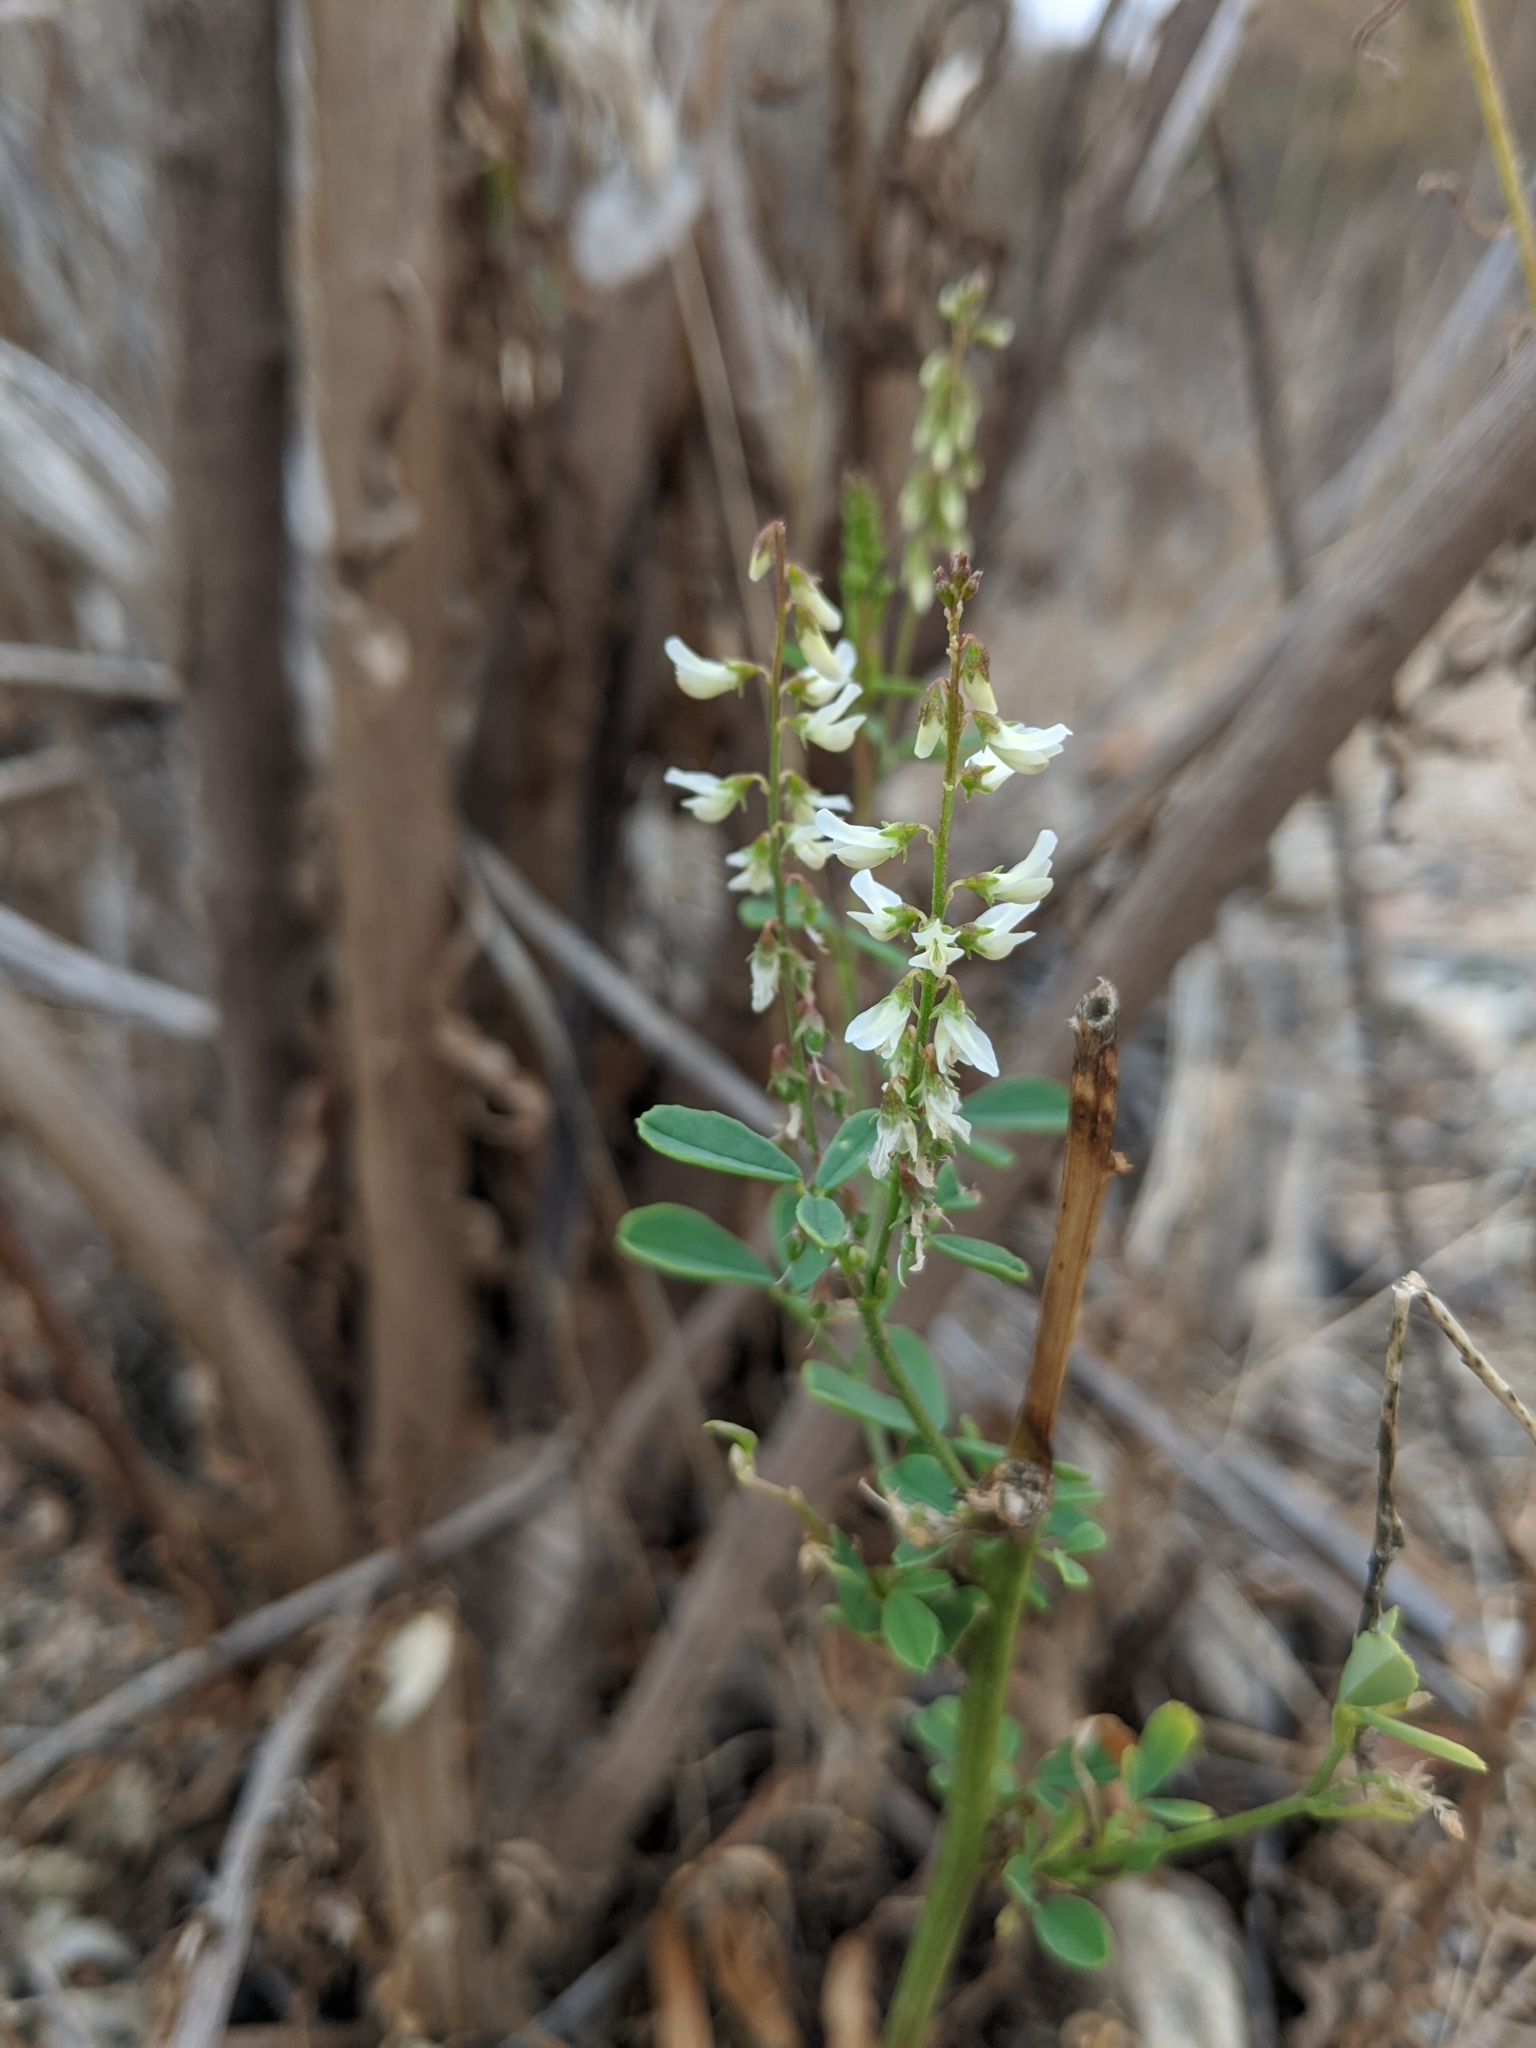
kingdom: Plantae
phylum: Tracheophyta
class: Magnoliopsida
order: Fabales
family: Fabaceae
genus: Melilotus
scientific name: Melilotus albus
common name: White melilot
